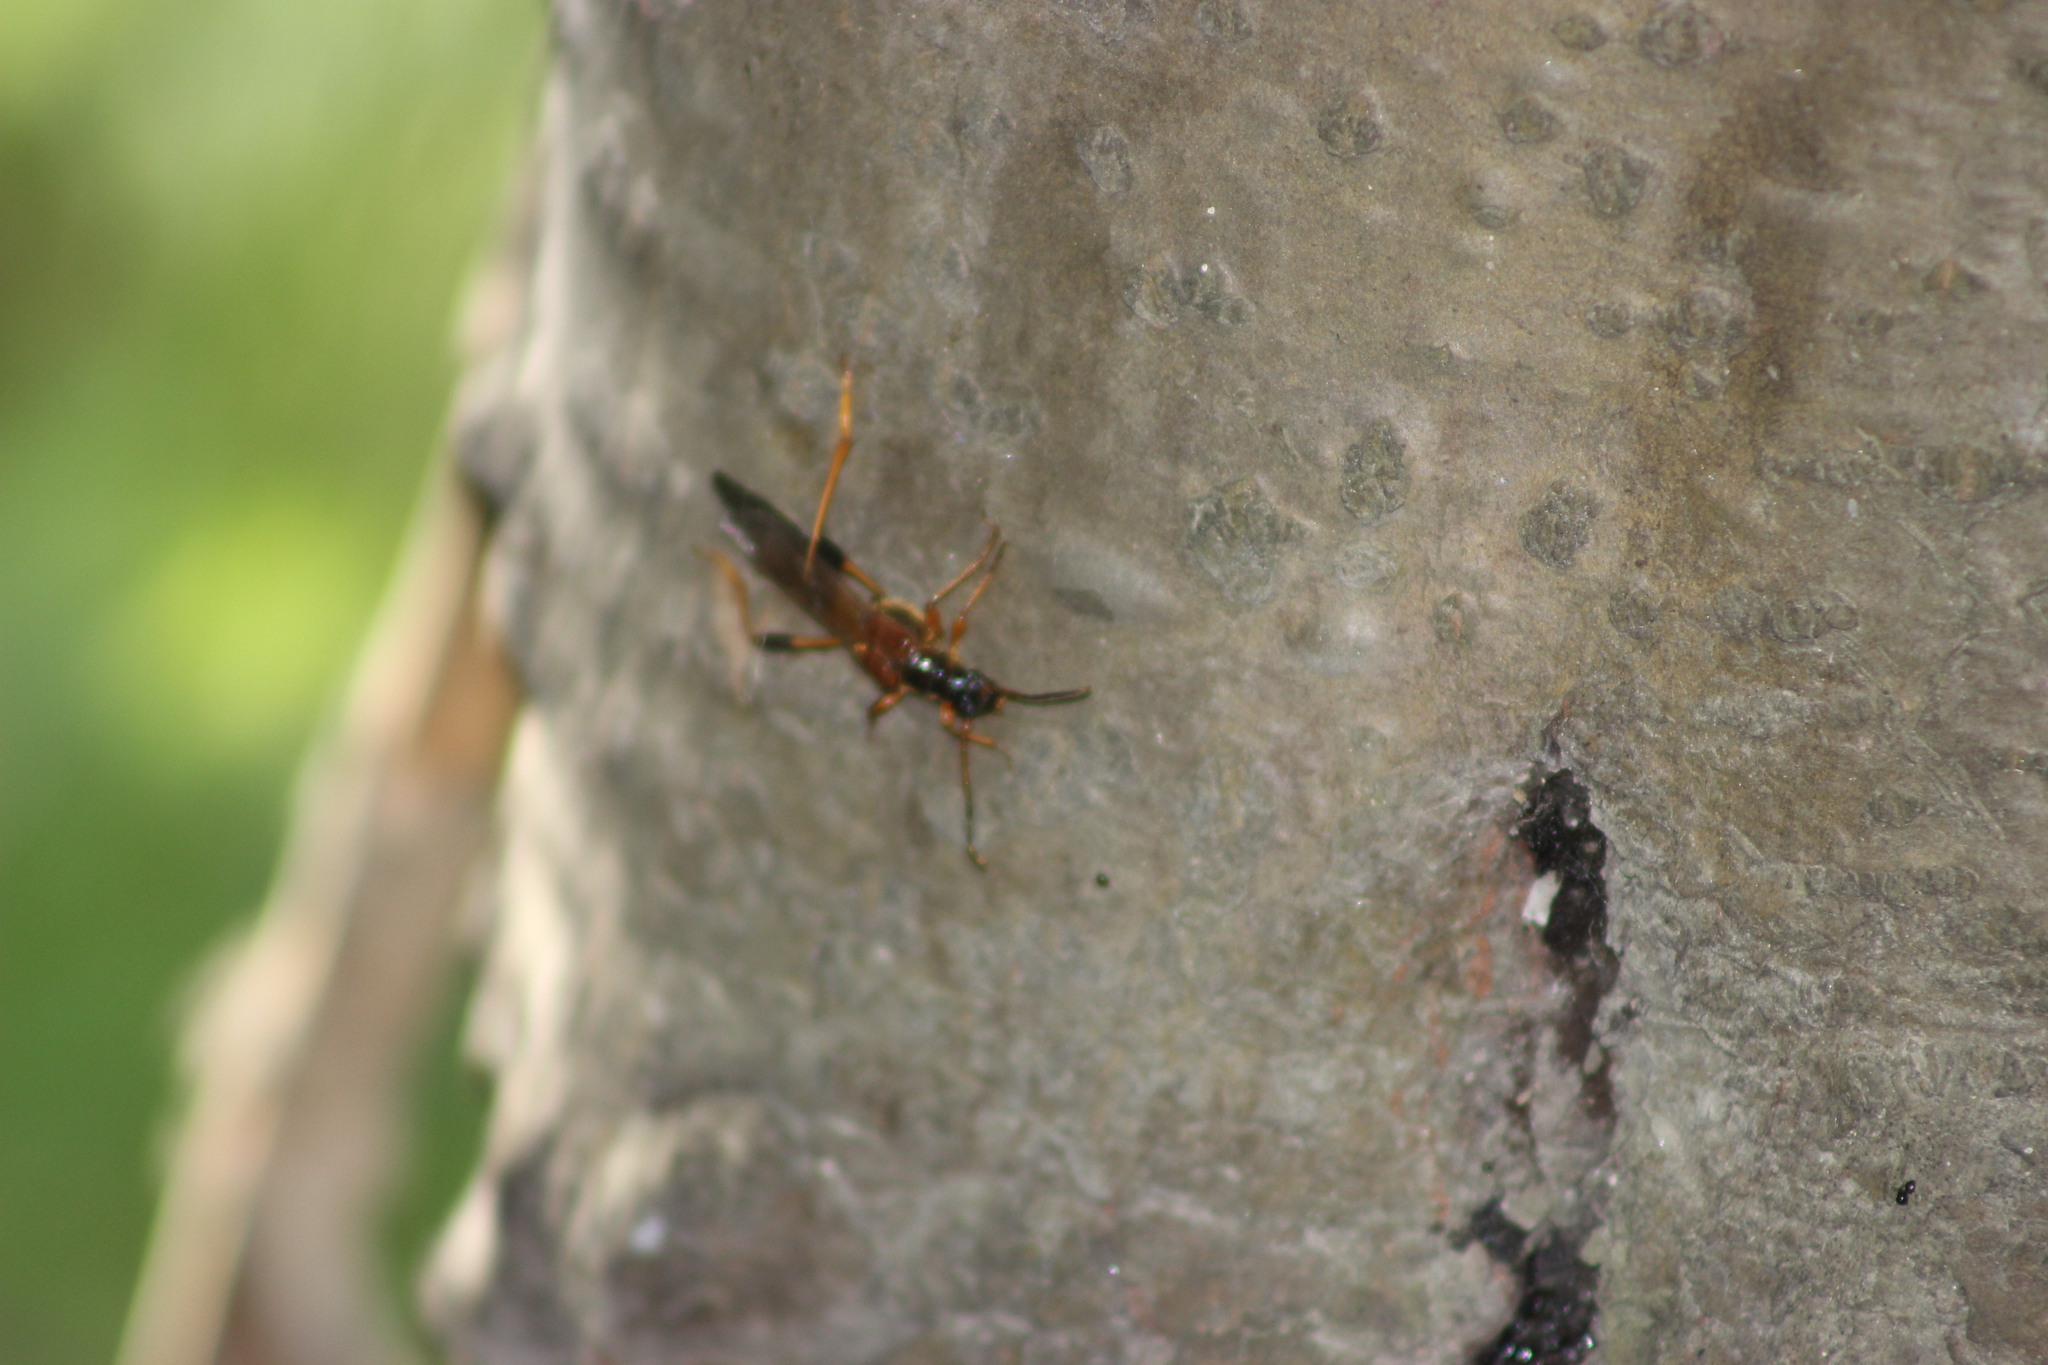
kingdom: Animalia
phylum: Arthropoda
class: Insecta
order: Coleoptera
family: Cerambycidae
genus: Necydalis
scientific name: Necydalis major
